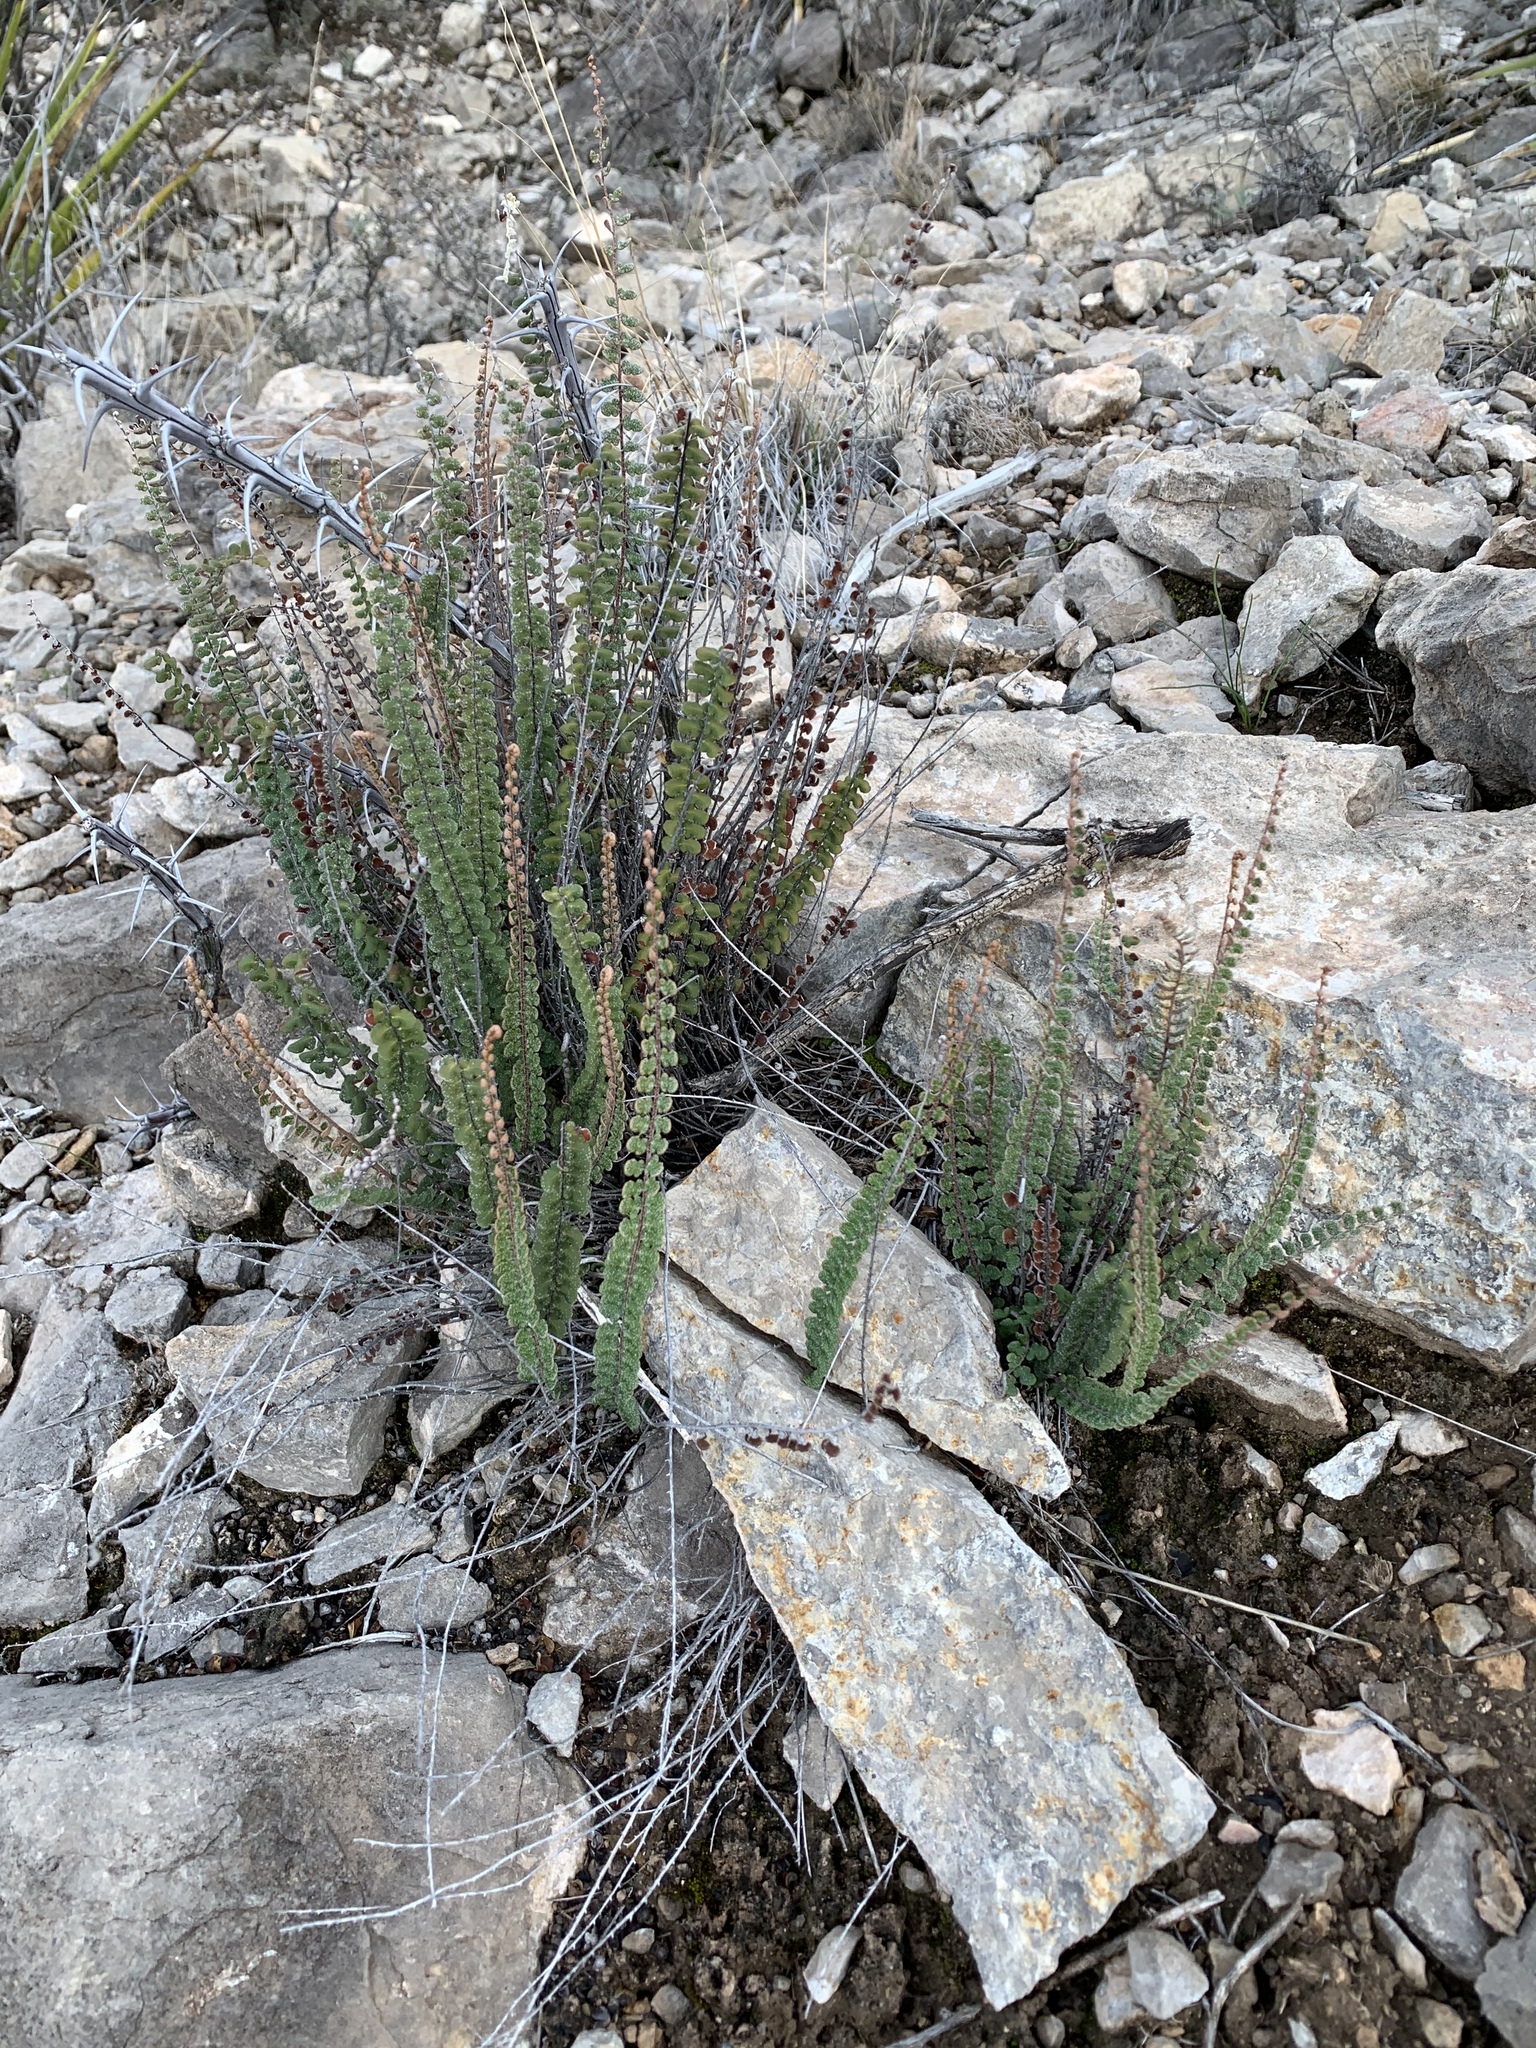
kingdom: Plantae
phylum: Tracheophyta
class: Polypodiopsida
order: Polypodiales
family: Pteridaceae
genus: Astrolepis
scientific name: Astrolepis cochisensis
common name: Scaly cloak fern
